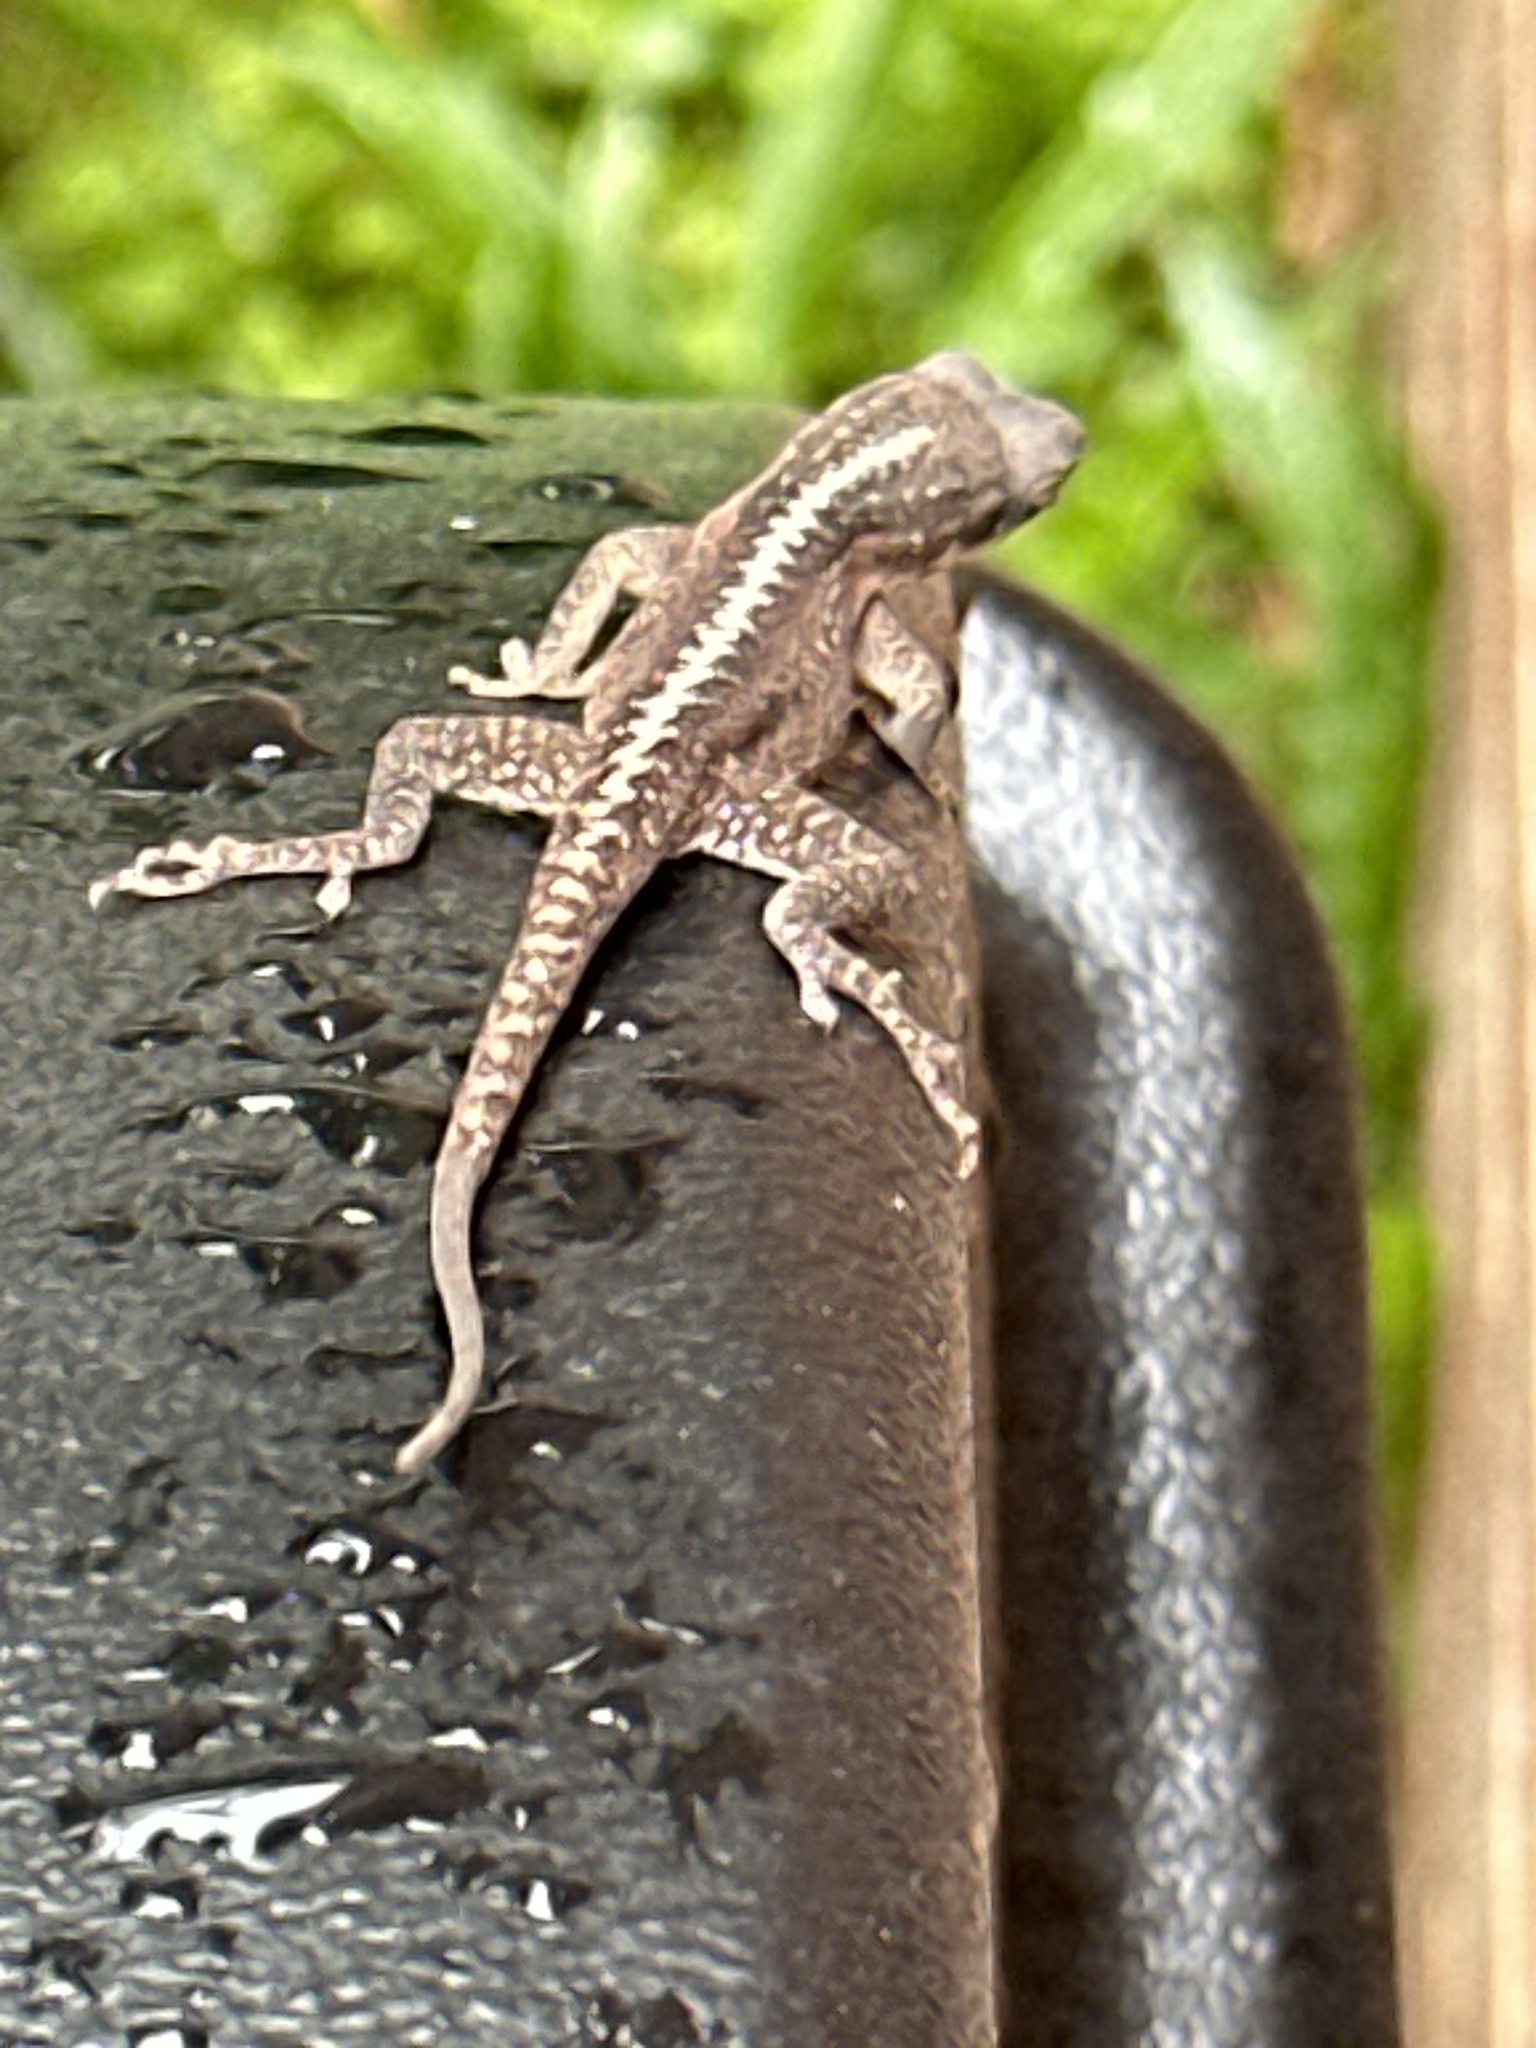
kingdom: Animalia
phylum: Chordata
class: Squamata
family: Dactyloidae
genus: Anolis
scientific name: Anolis carolinensis
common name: Green anole
